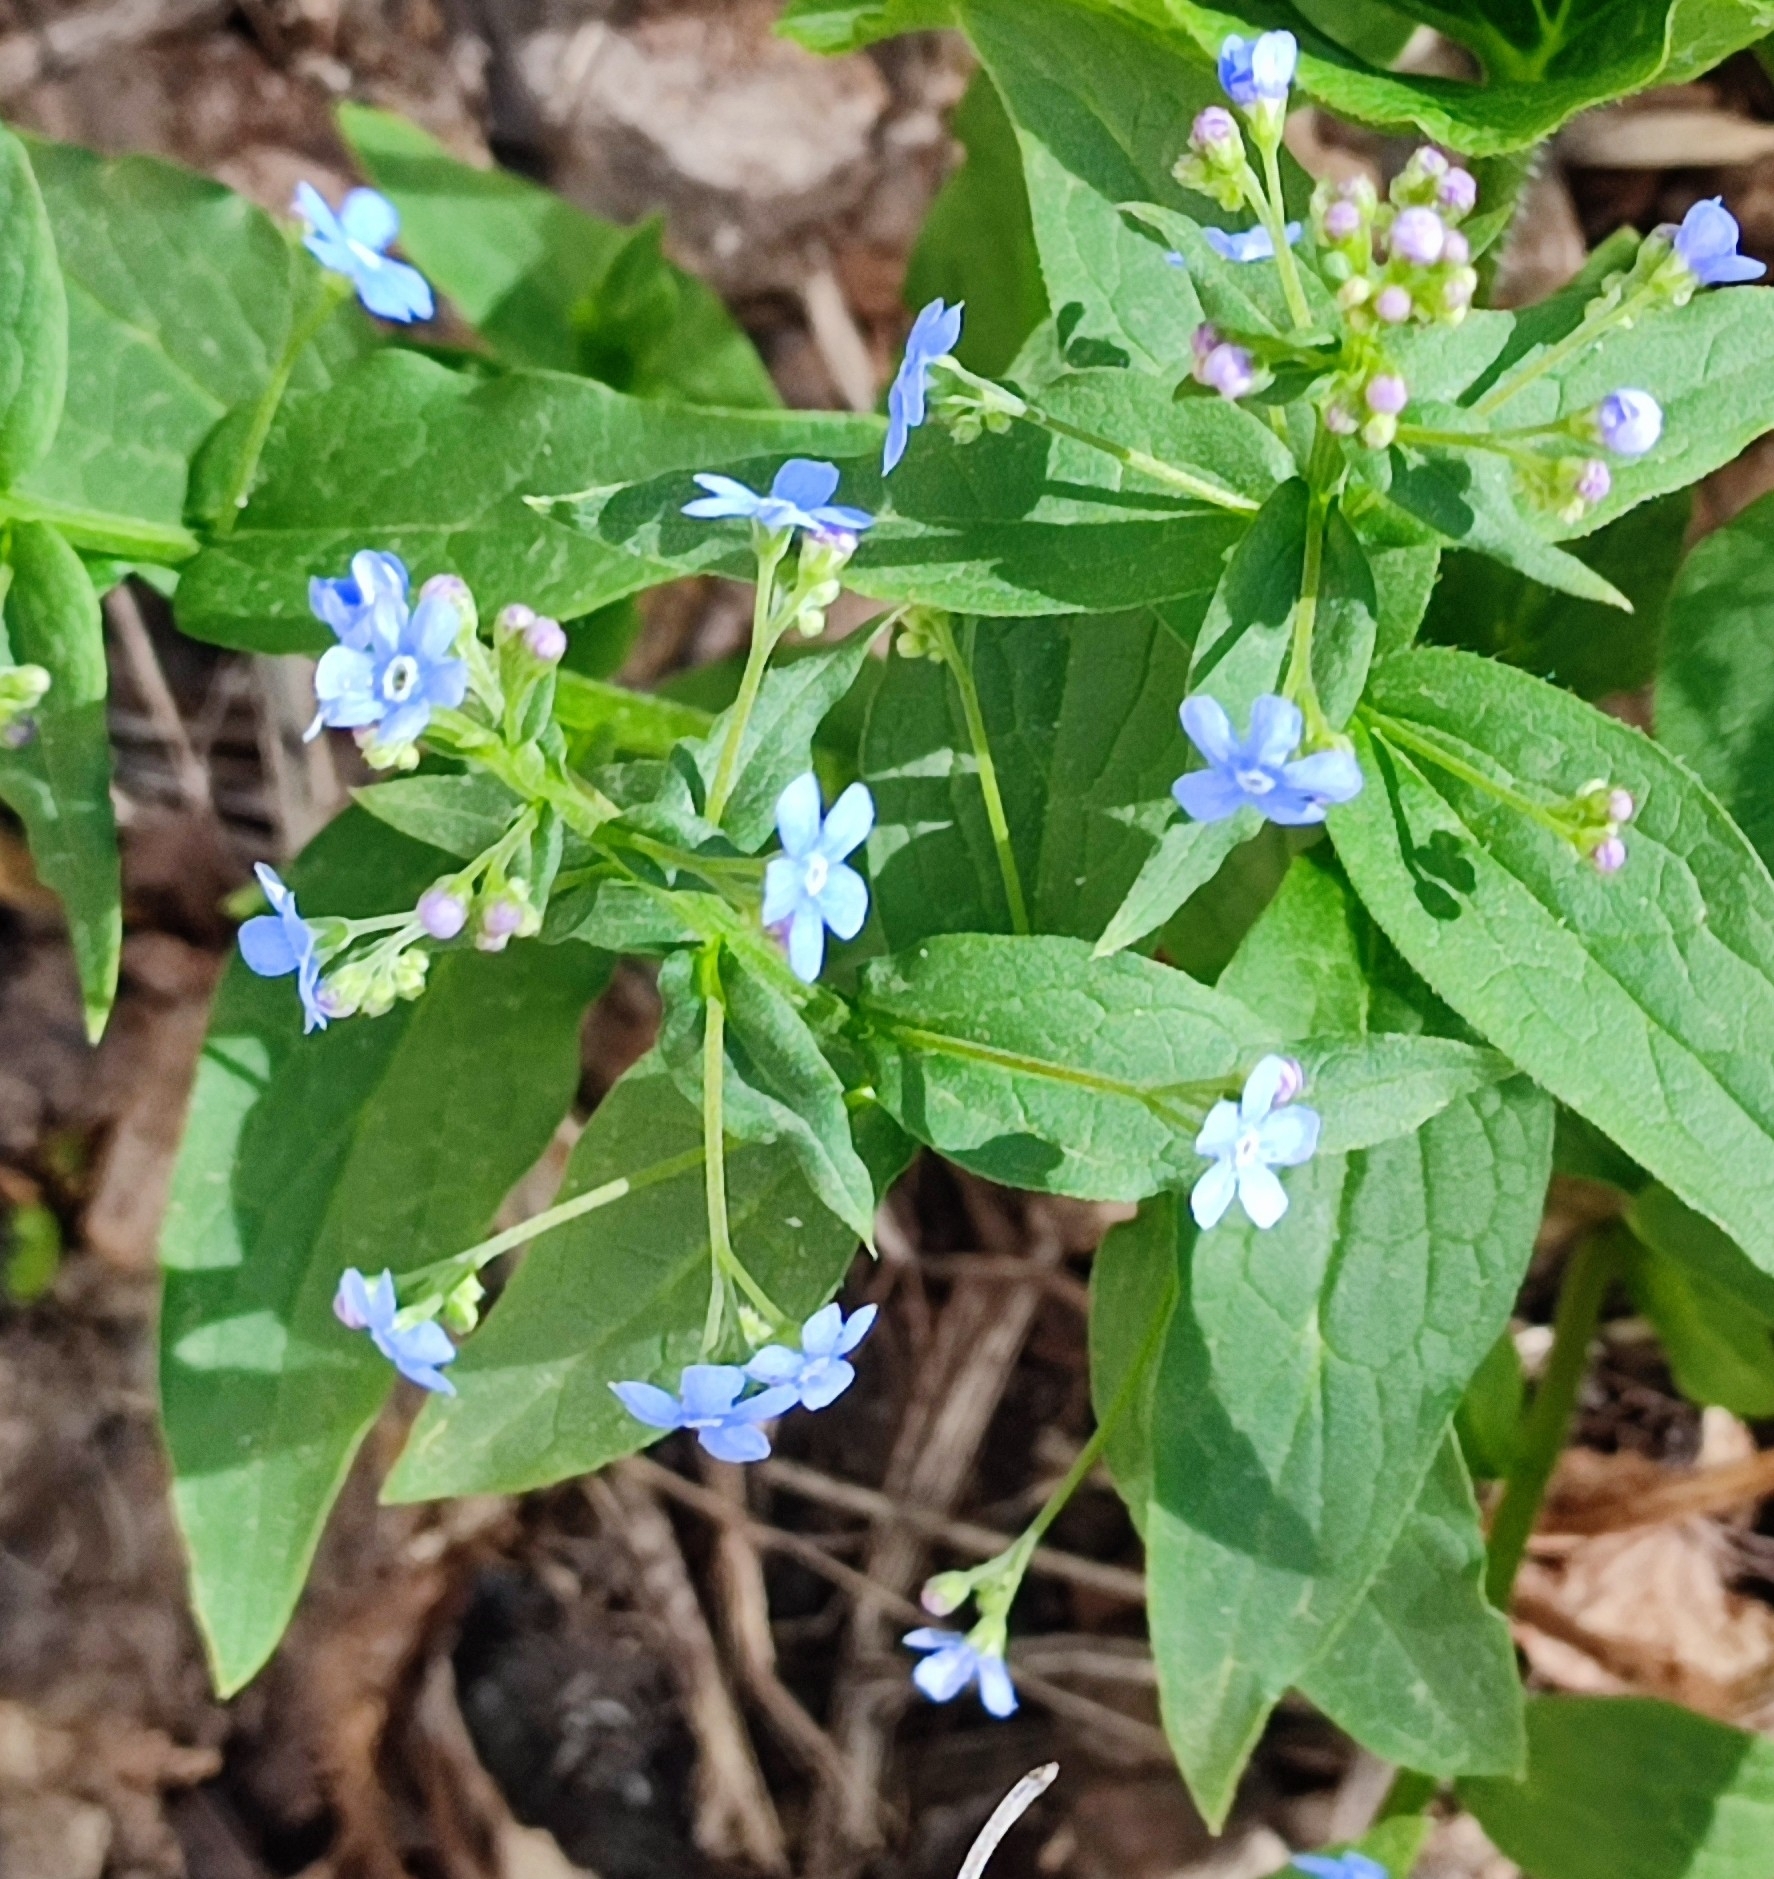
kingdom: Plantae
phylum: Tracheophyta
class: Magnoliopsida
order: Boraginales
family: Boraginaceae
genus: Brunnera
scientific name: Brunnera sibirica
